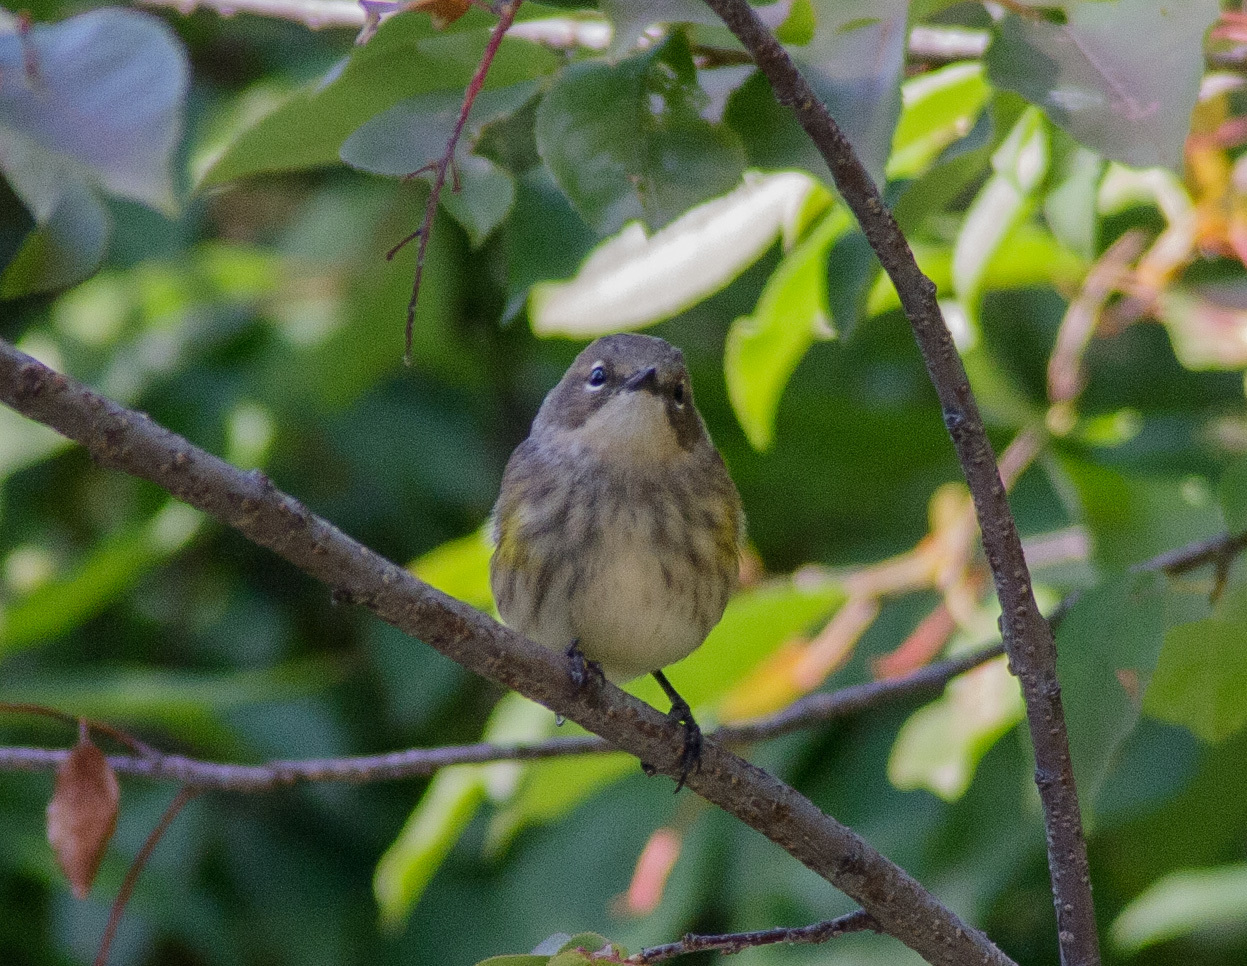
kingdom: Animalia
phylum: Chordata
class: Aves
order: Passeriformes
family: Parulidae
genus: Setophaga
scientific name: Setophaga coronata
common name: Myrtle warbler
